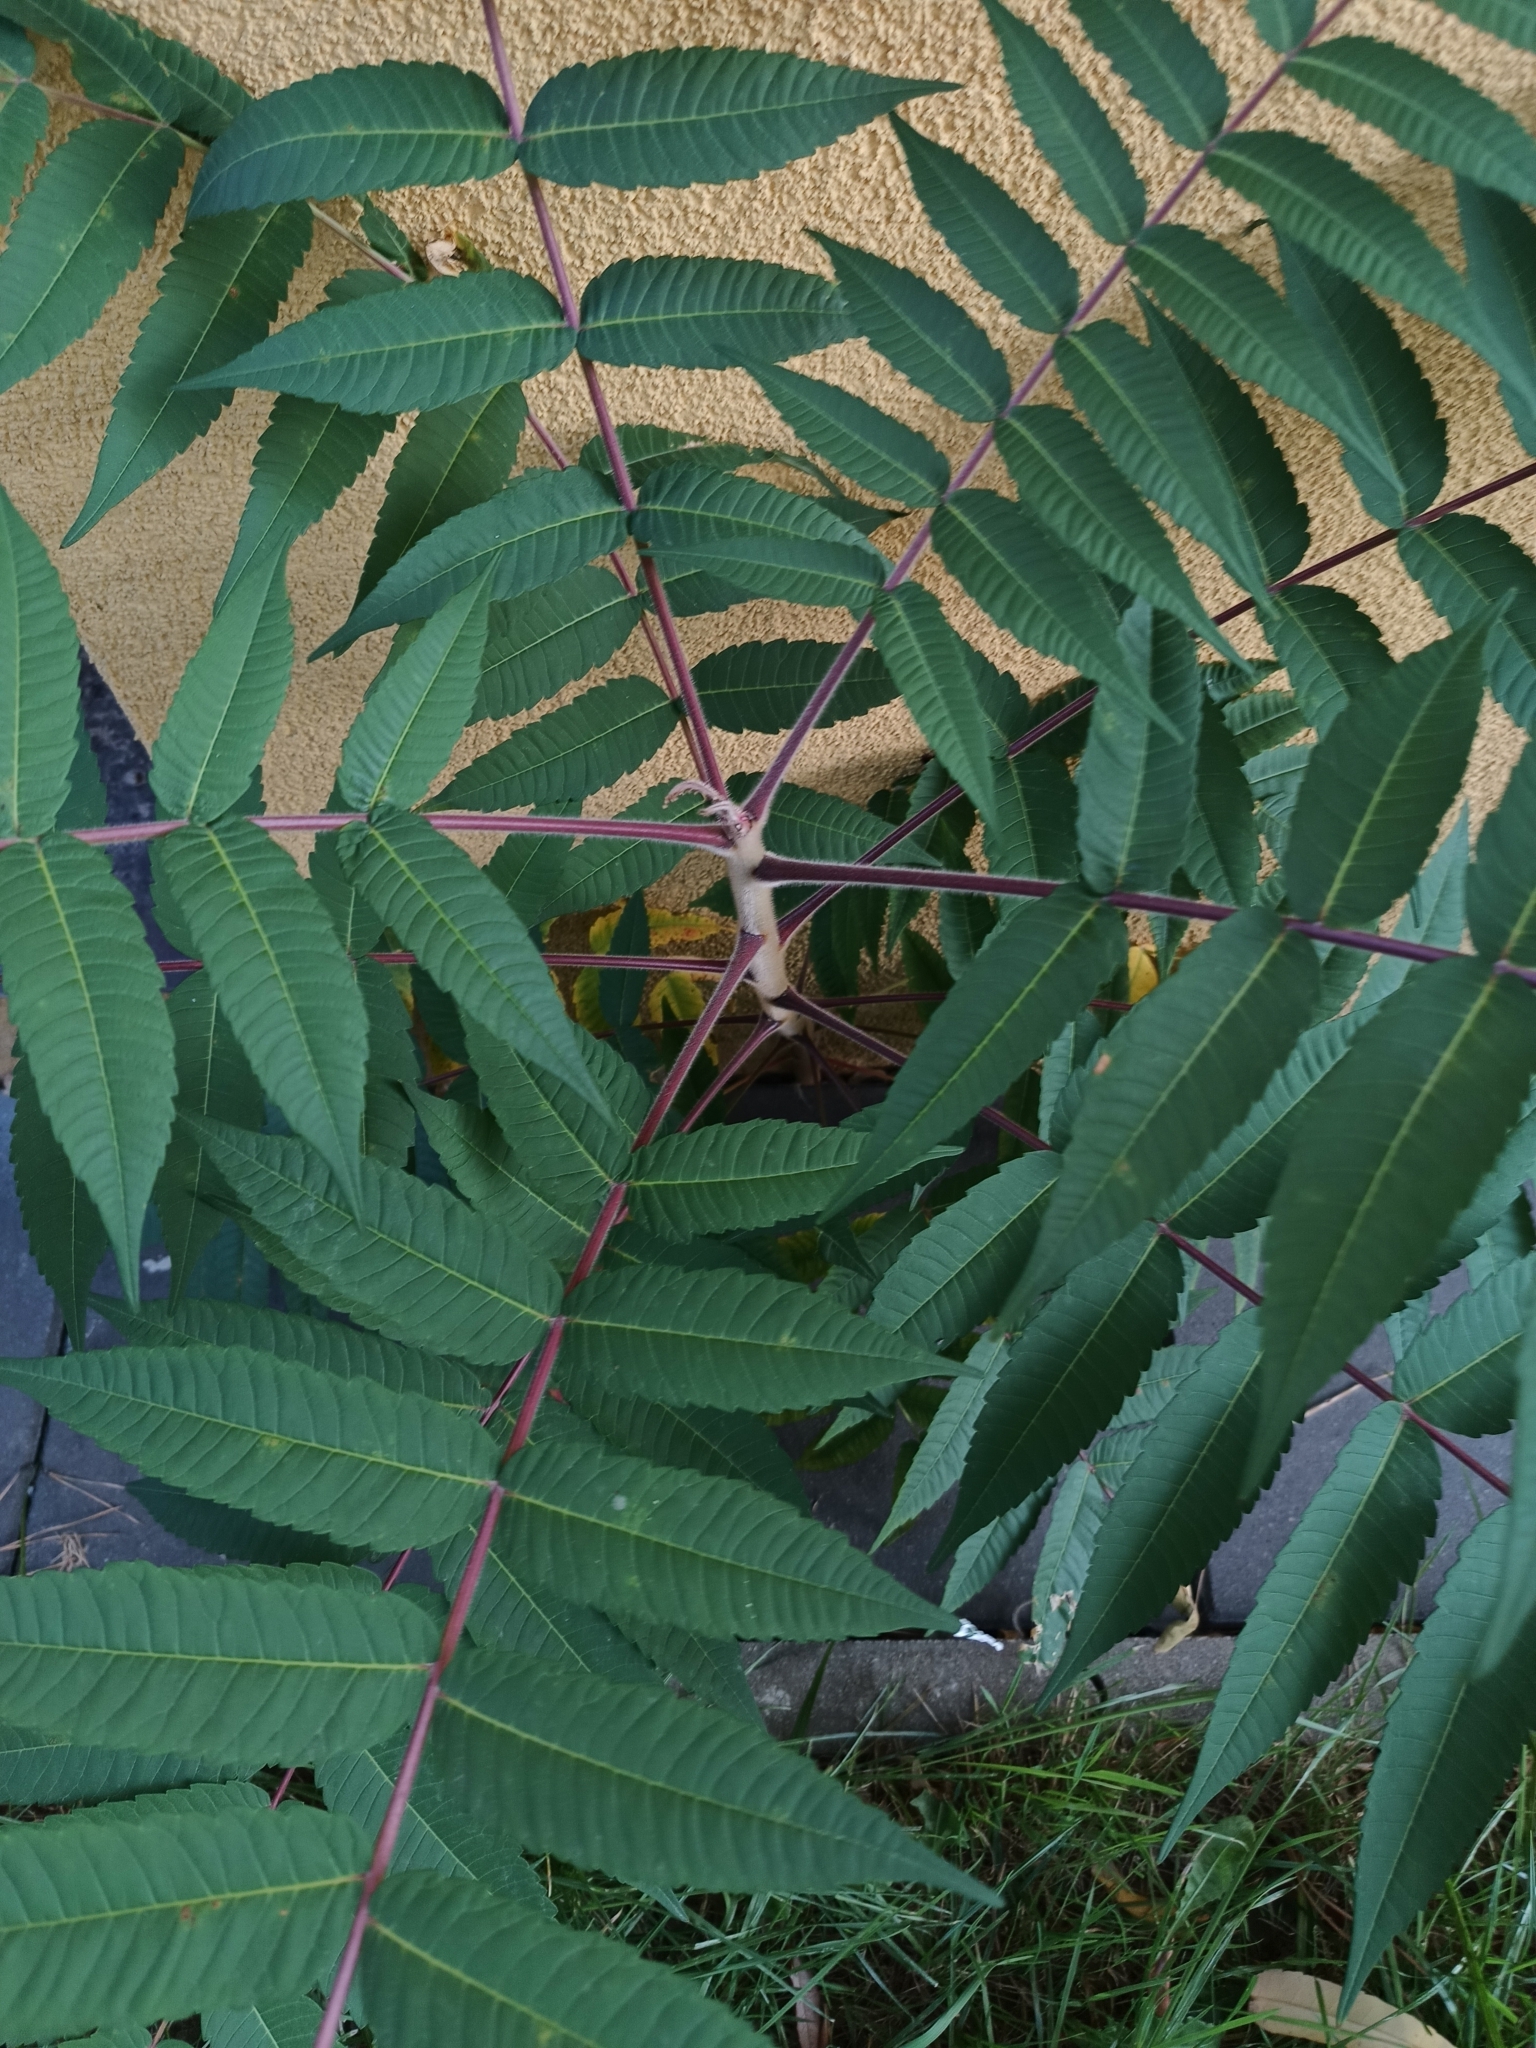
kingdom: Plantae
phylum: Tracheophyta
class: Magnoliopsida
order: Sapindales
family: Anacardiaceae
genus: Rhus
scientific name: Rhus typhina
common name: Staghorn sumac
